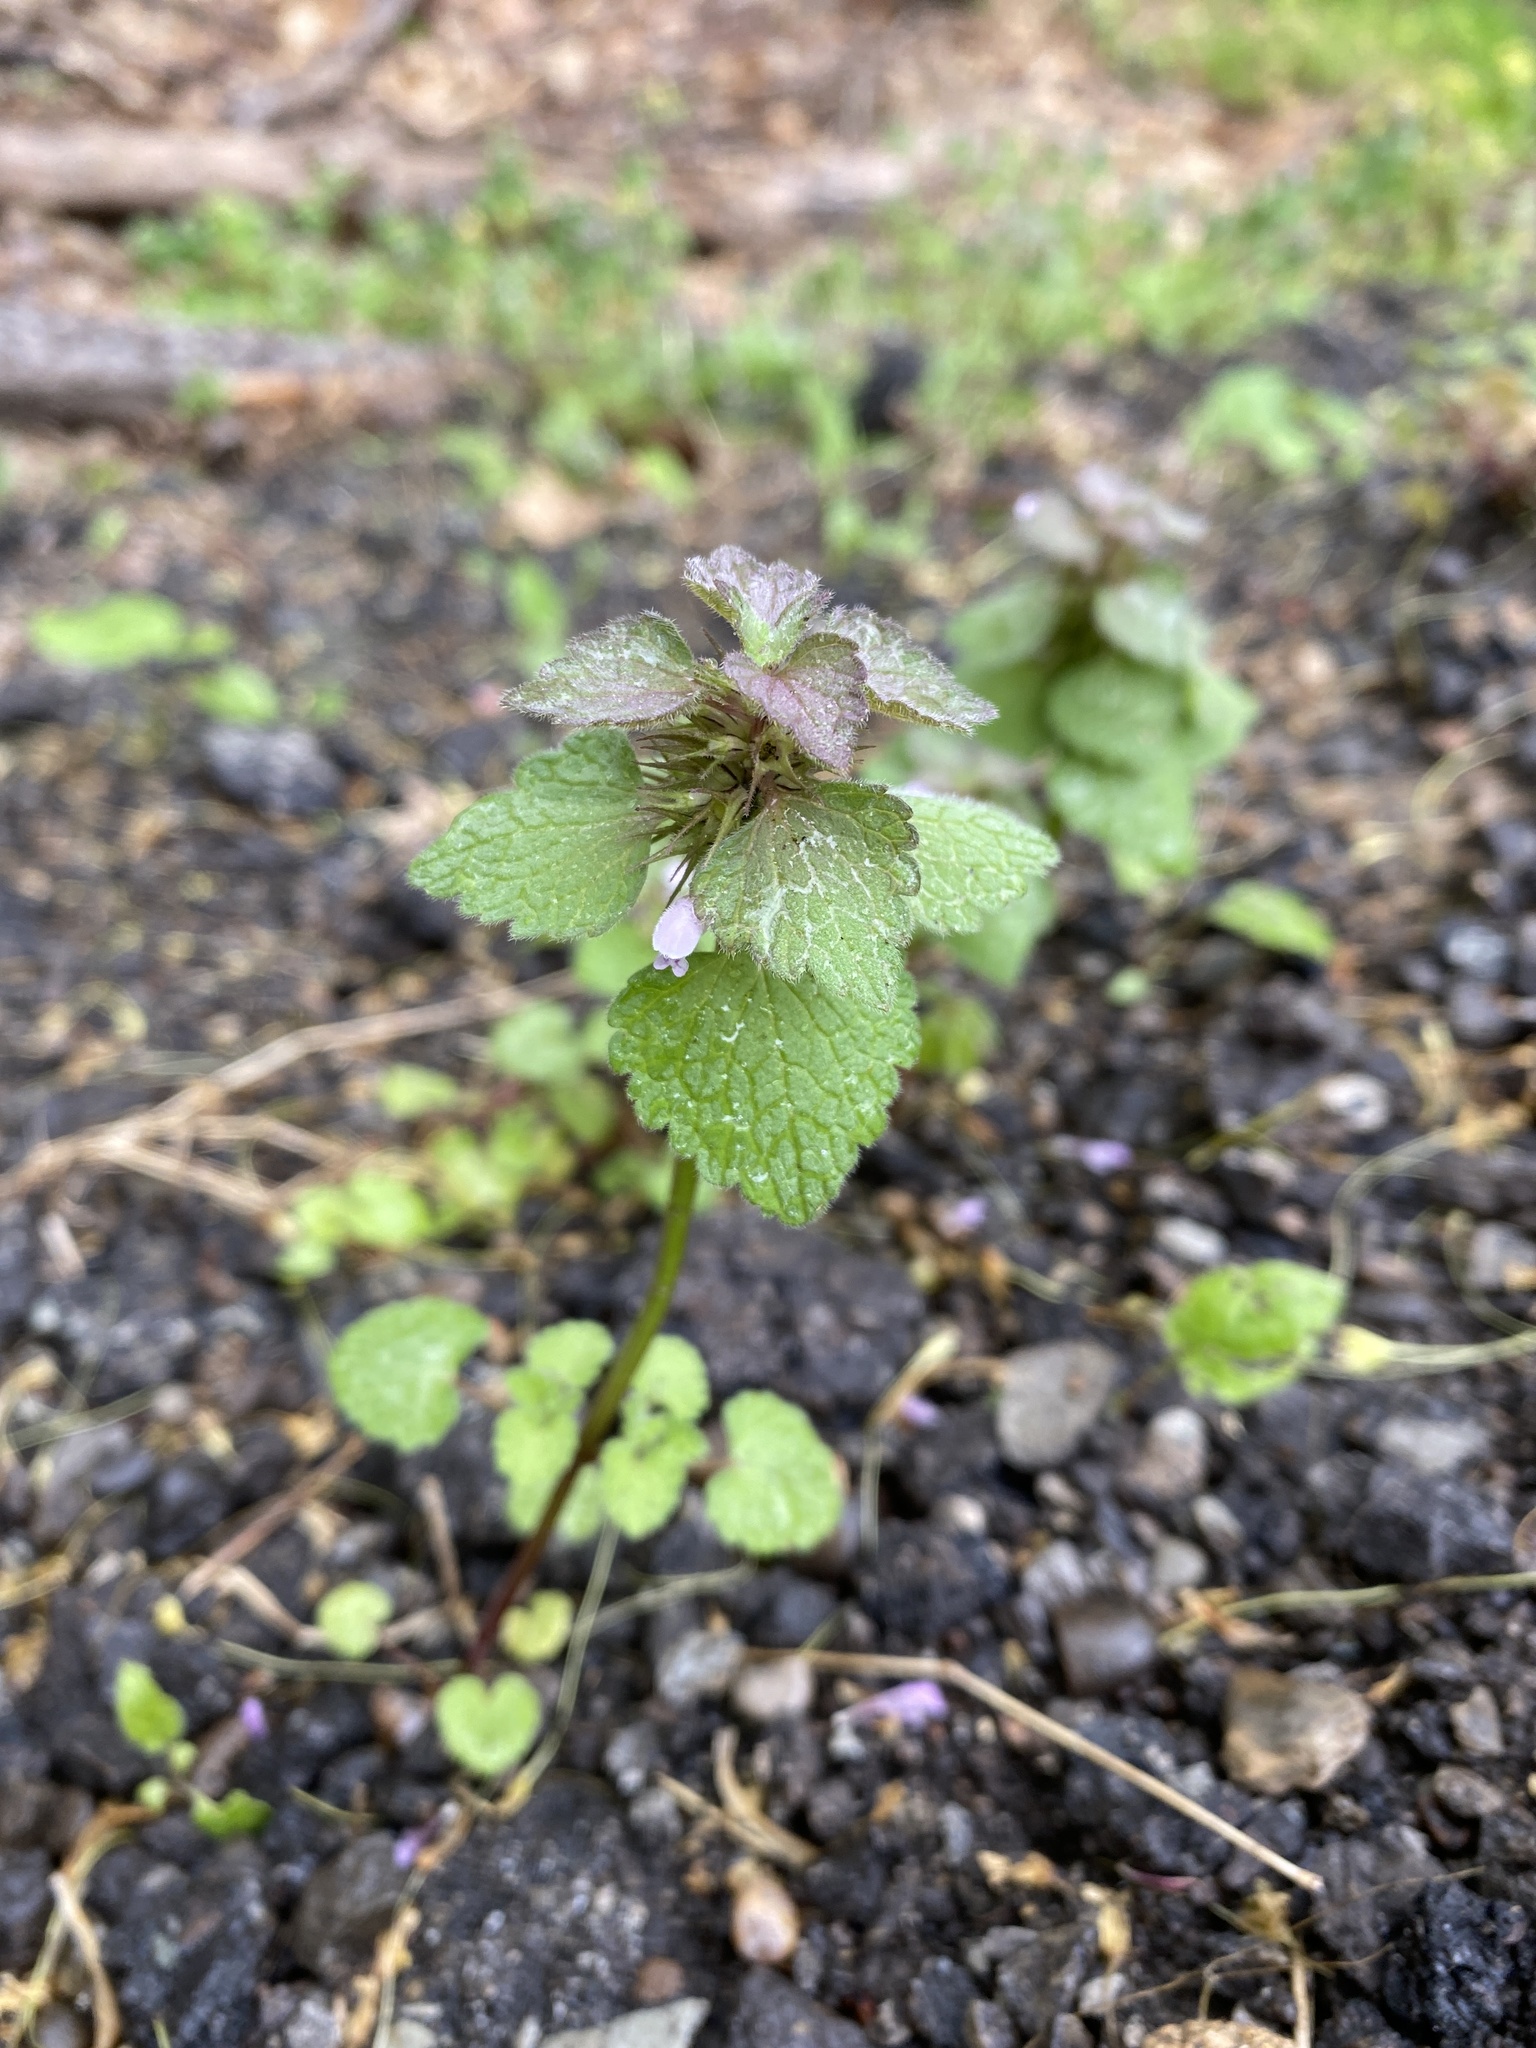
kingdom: Plantae
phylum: Tracheophyta
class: Magnoliopsida
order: Lamiales
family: Lamiaceae
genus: Lamium
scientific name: Lamium purpureum
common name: Red dead-nettle
